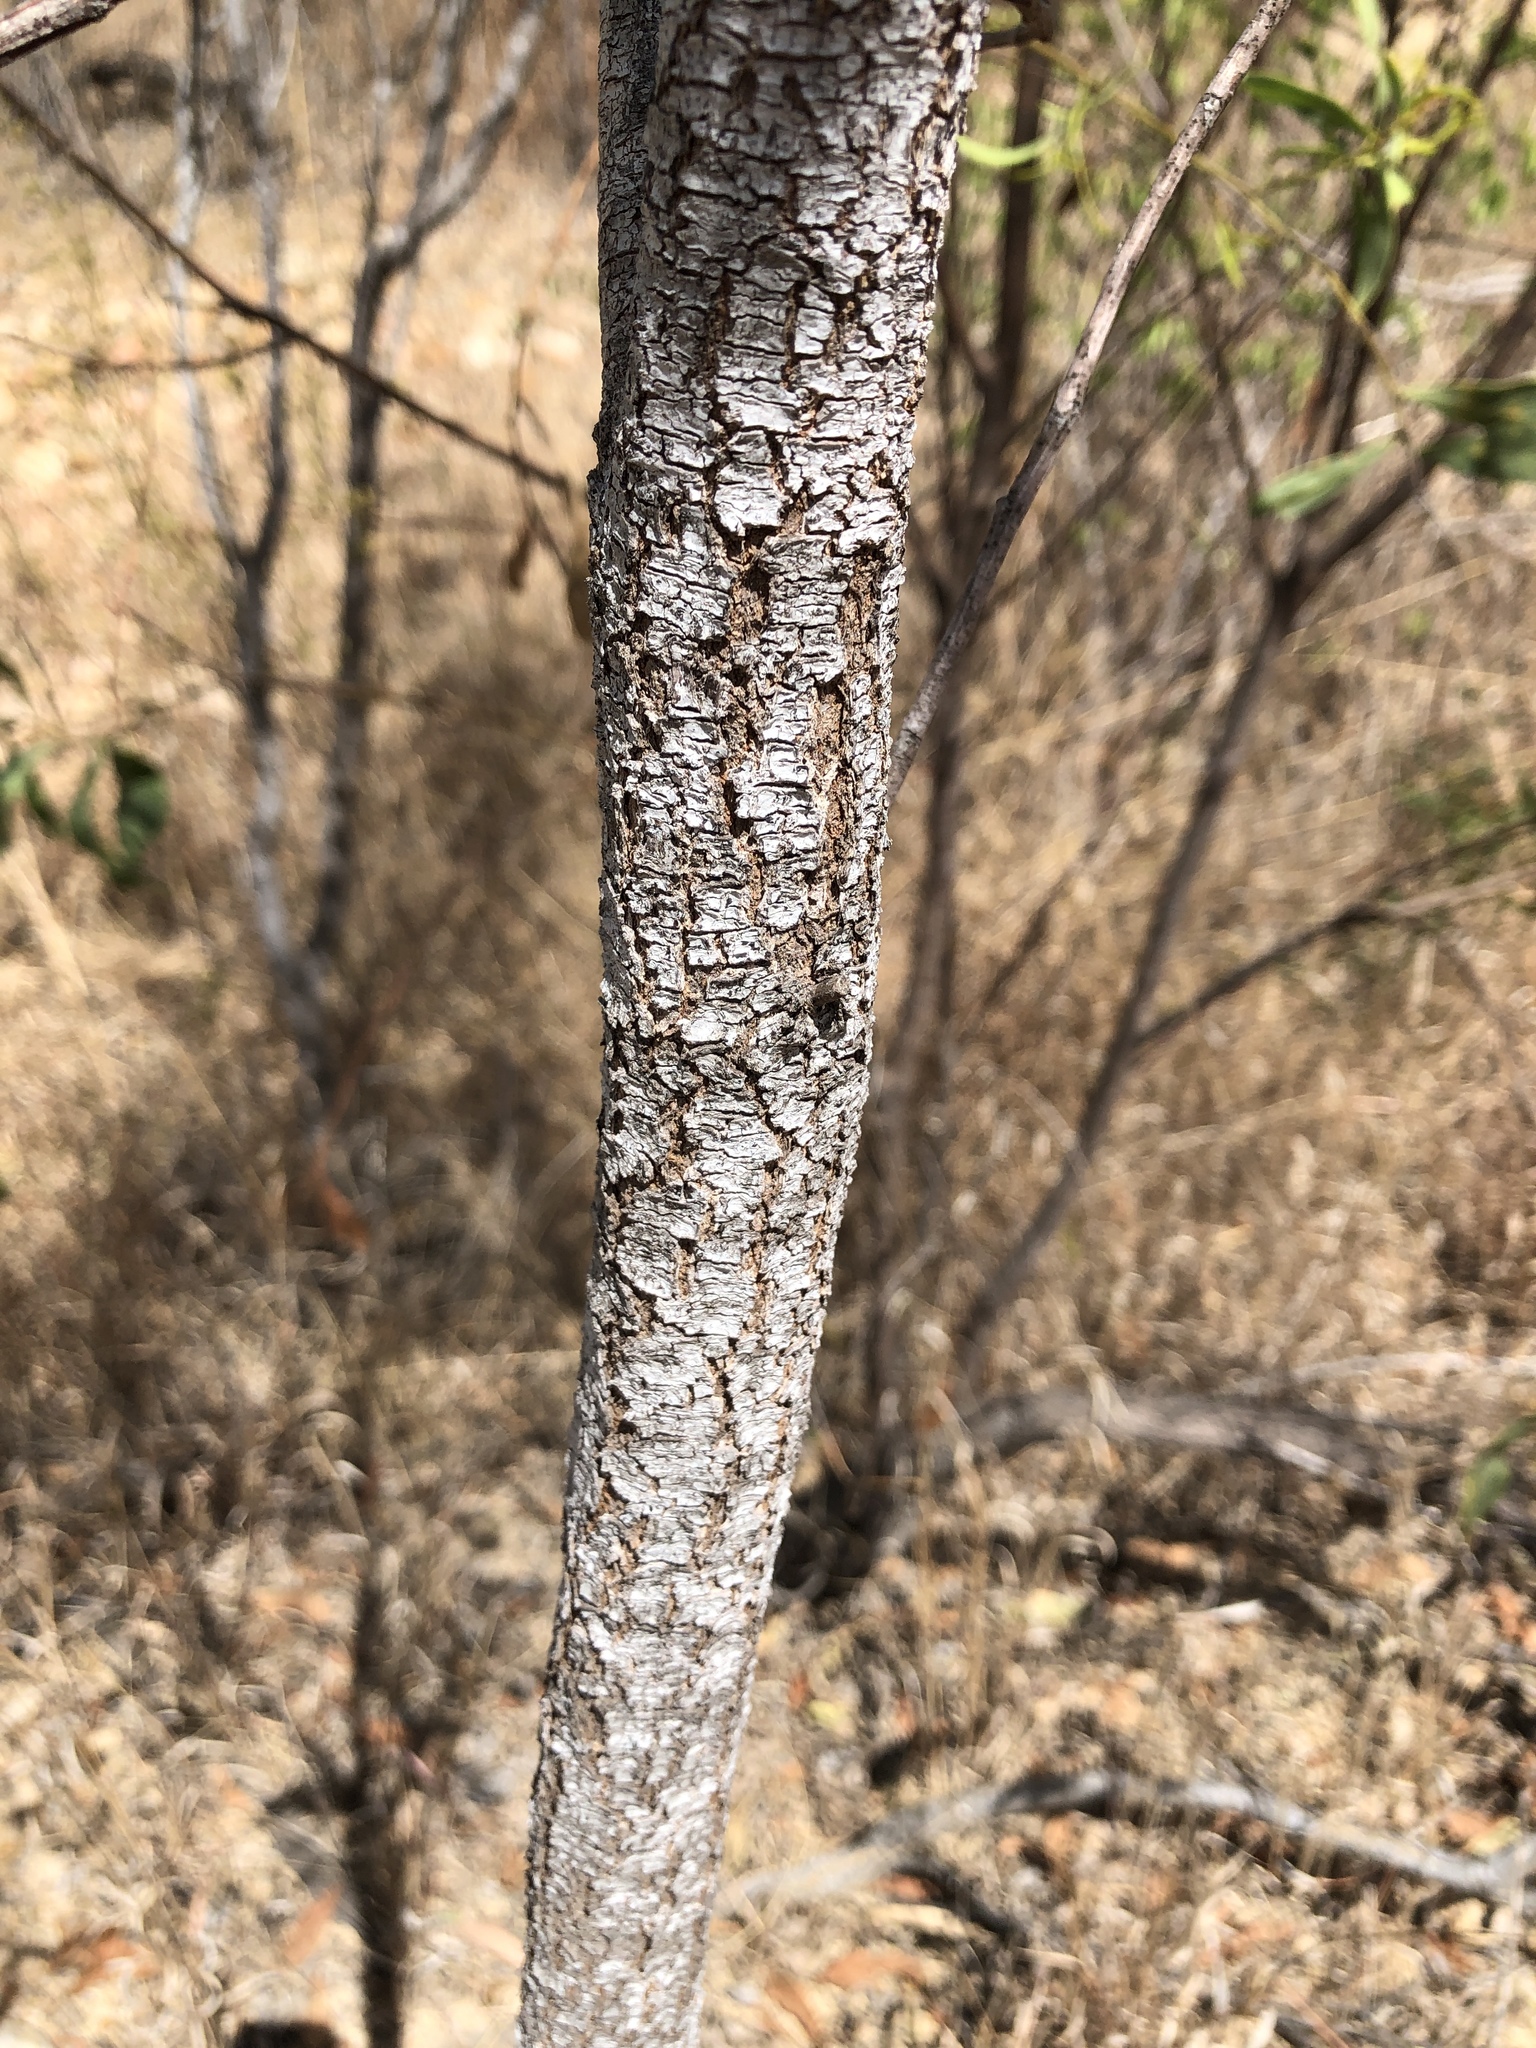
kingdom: Plantae
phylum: Tracheophyta
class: Magnoliopsida
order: Fabales
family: Fabaceae
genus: Acacia
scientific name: Acacia salicina
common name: Broughton willow wattle
